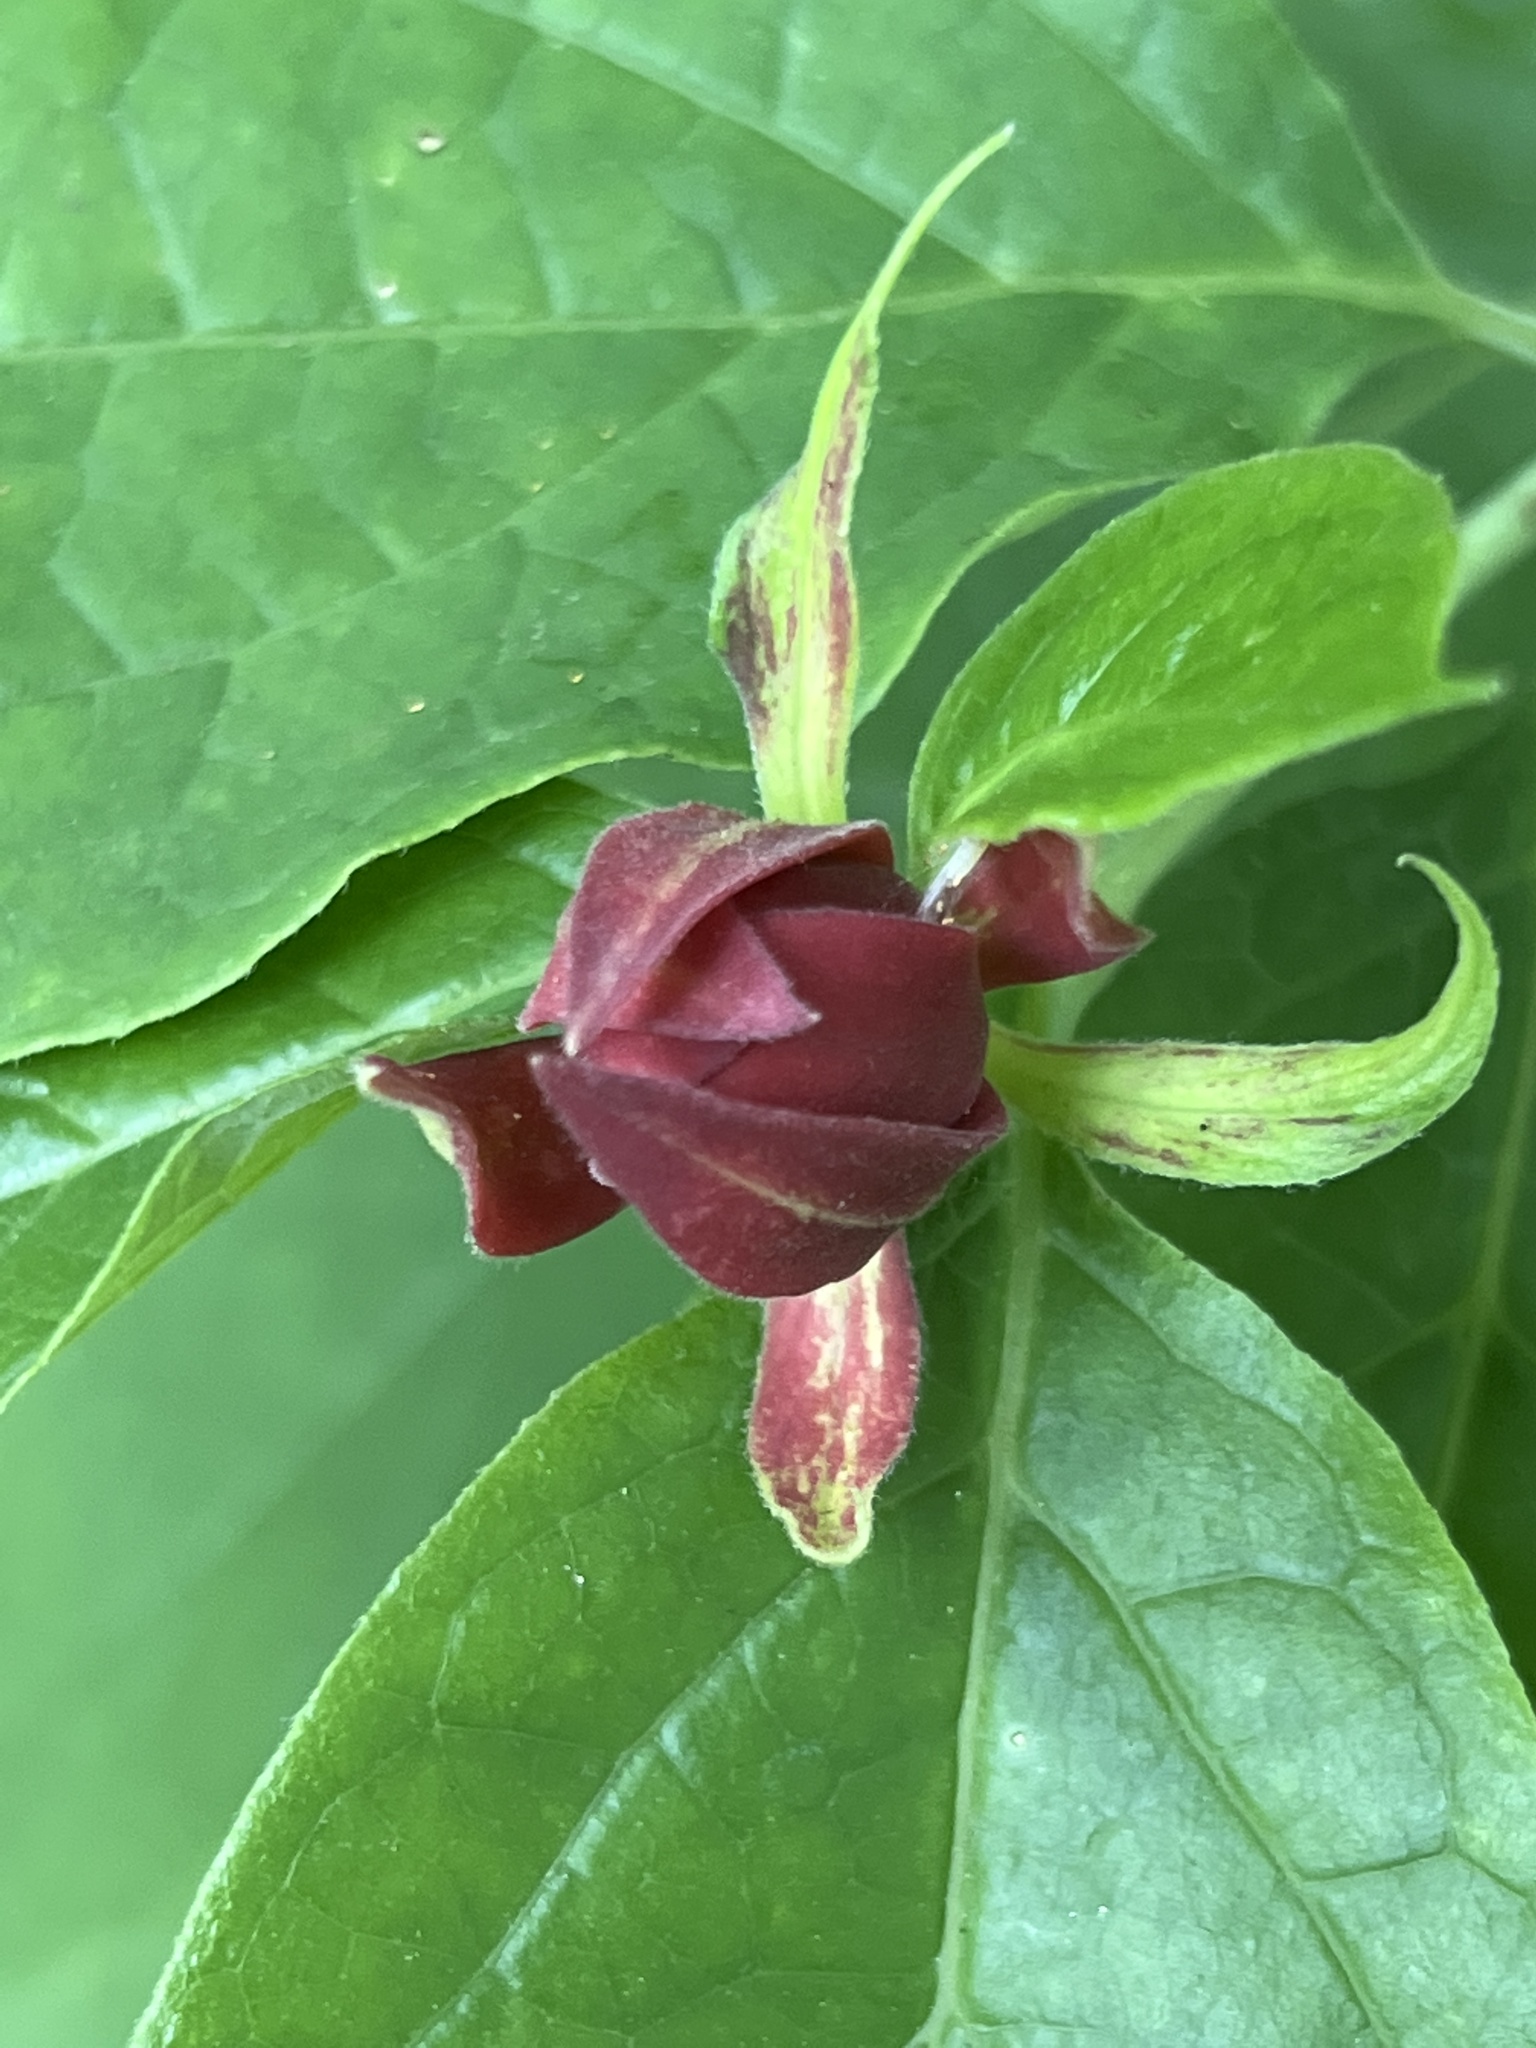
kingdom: Plantae
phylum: Tracheophyta
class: Magnoliopsida
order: Laurales
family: Calycanthaceae
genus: Calycanthus
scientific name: Calycanthus floridus
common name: Carolina-allspice
